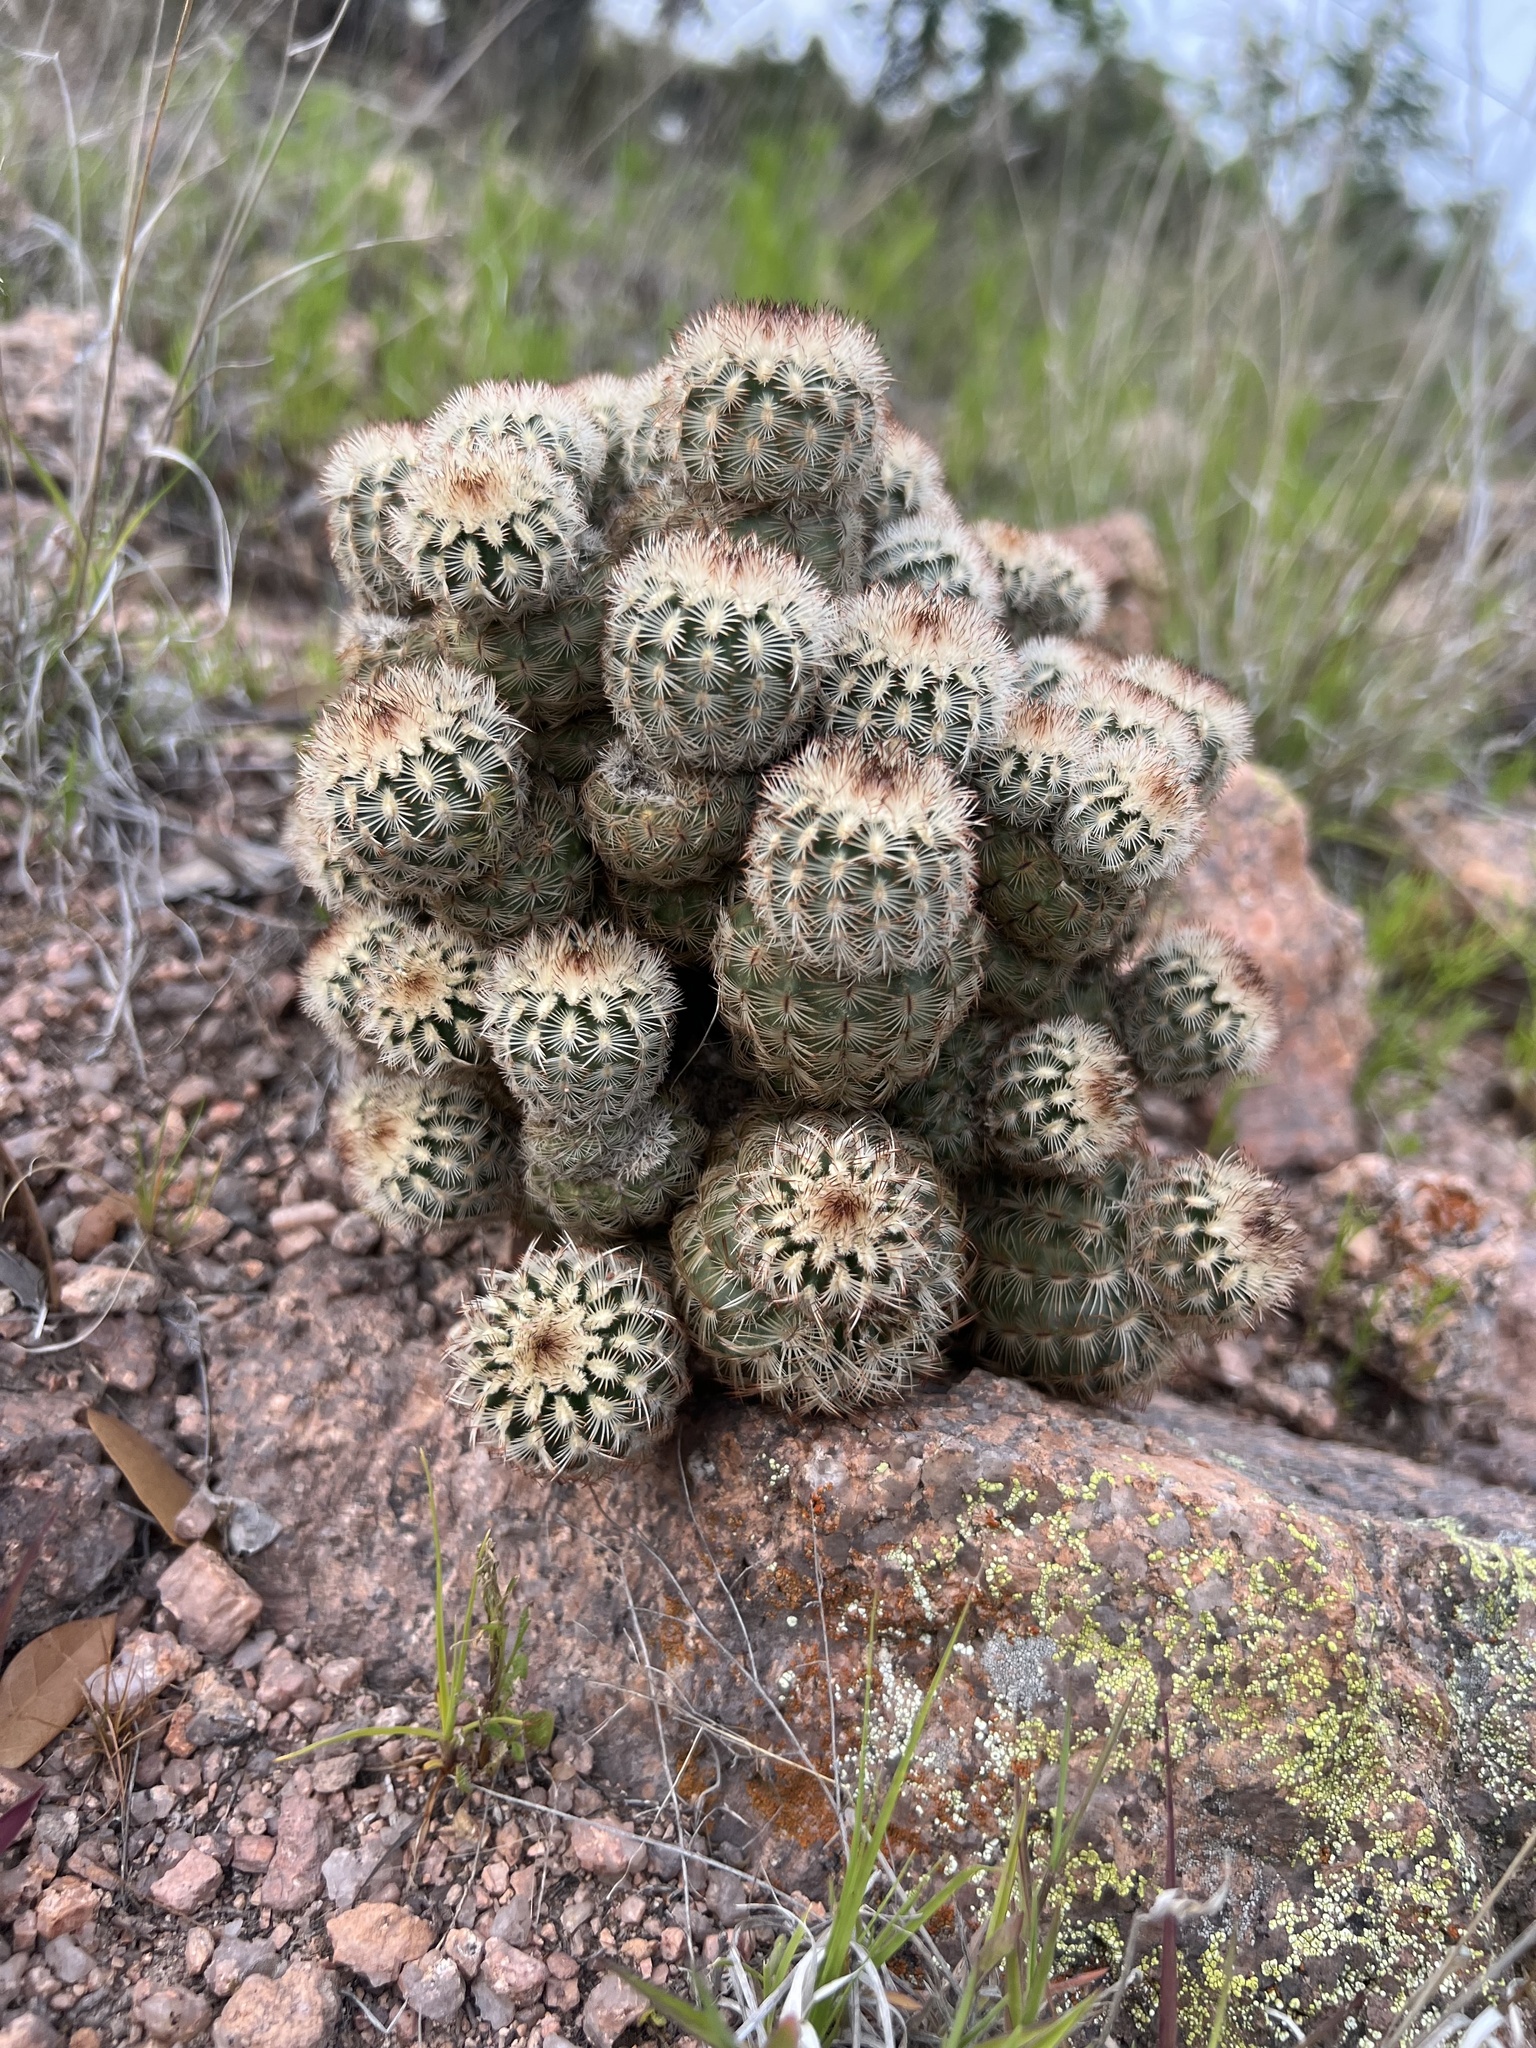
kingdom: Plantae
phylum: Tracheophyta
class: Magnoliopsida
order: Caryophyllales
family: Cactaceae
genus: Echinocereus
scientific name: Echinocereus reichenbachii
